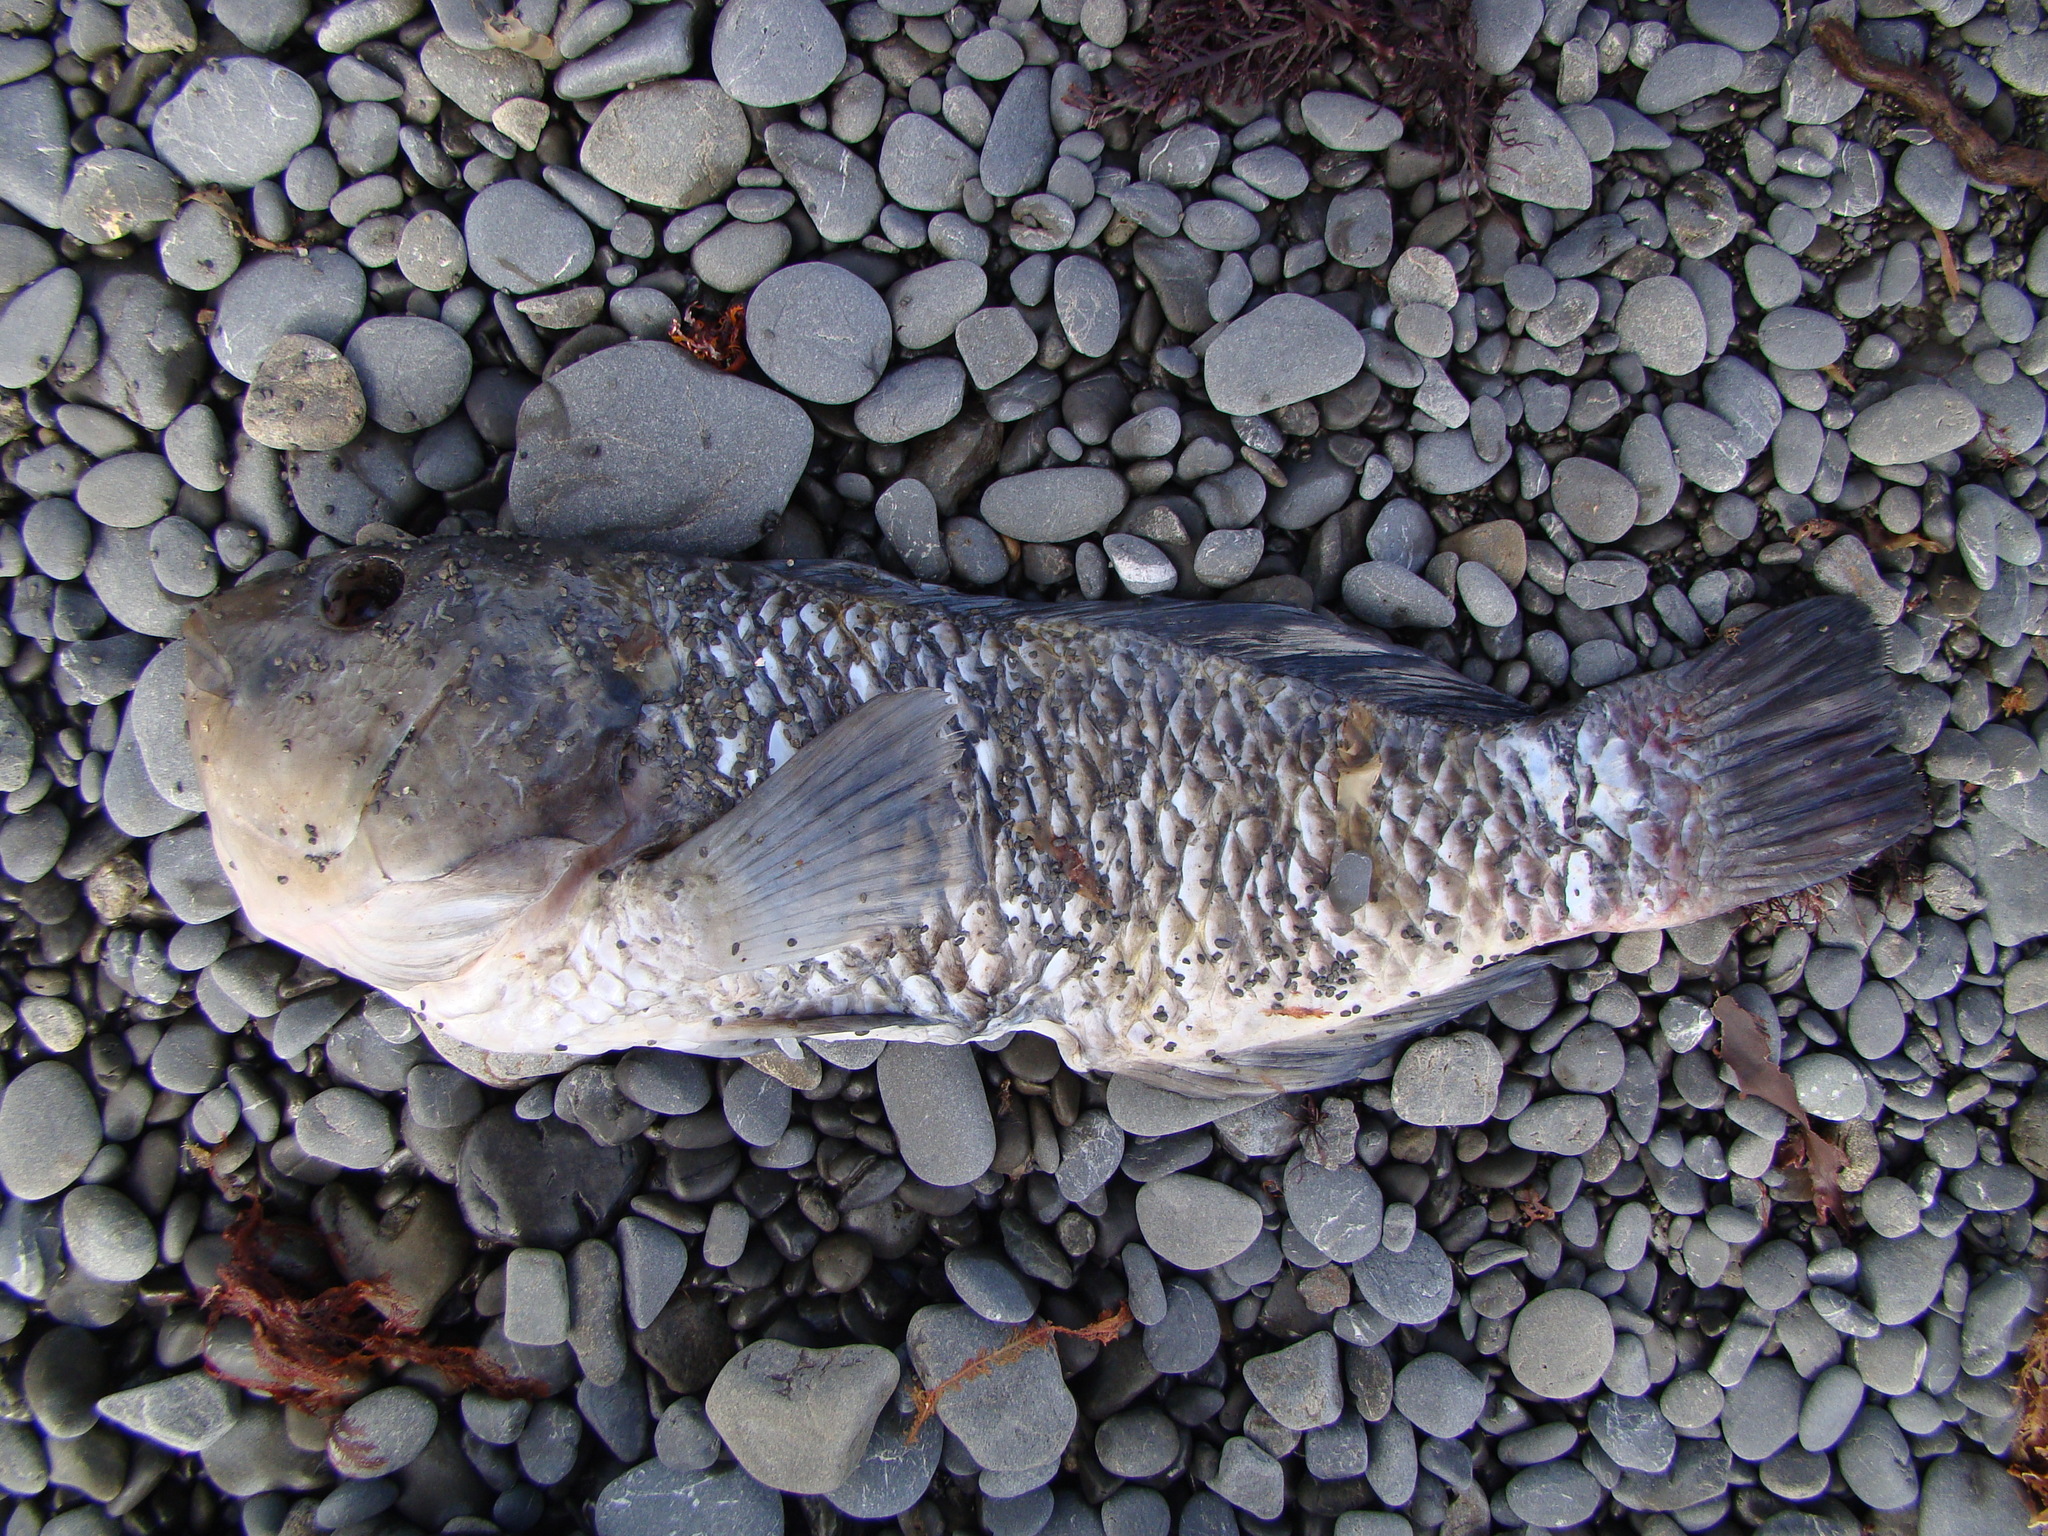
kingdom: Animalia
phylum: Chordata
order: Perciformes
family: Labridae
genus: Notolabrus
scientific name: Notolabrus fucicola
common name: Banded parrotfish
